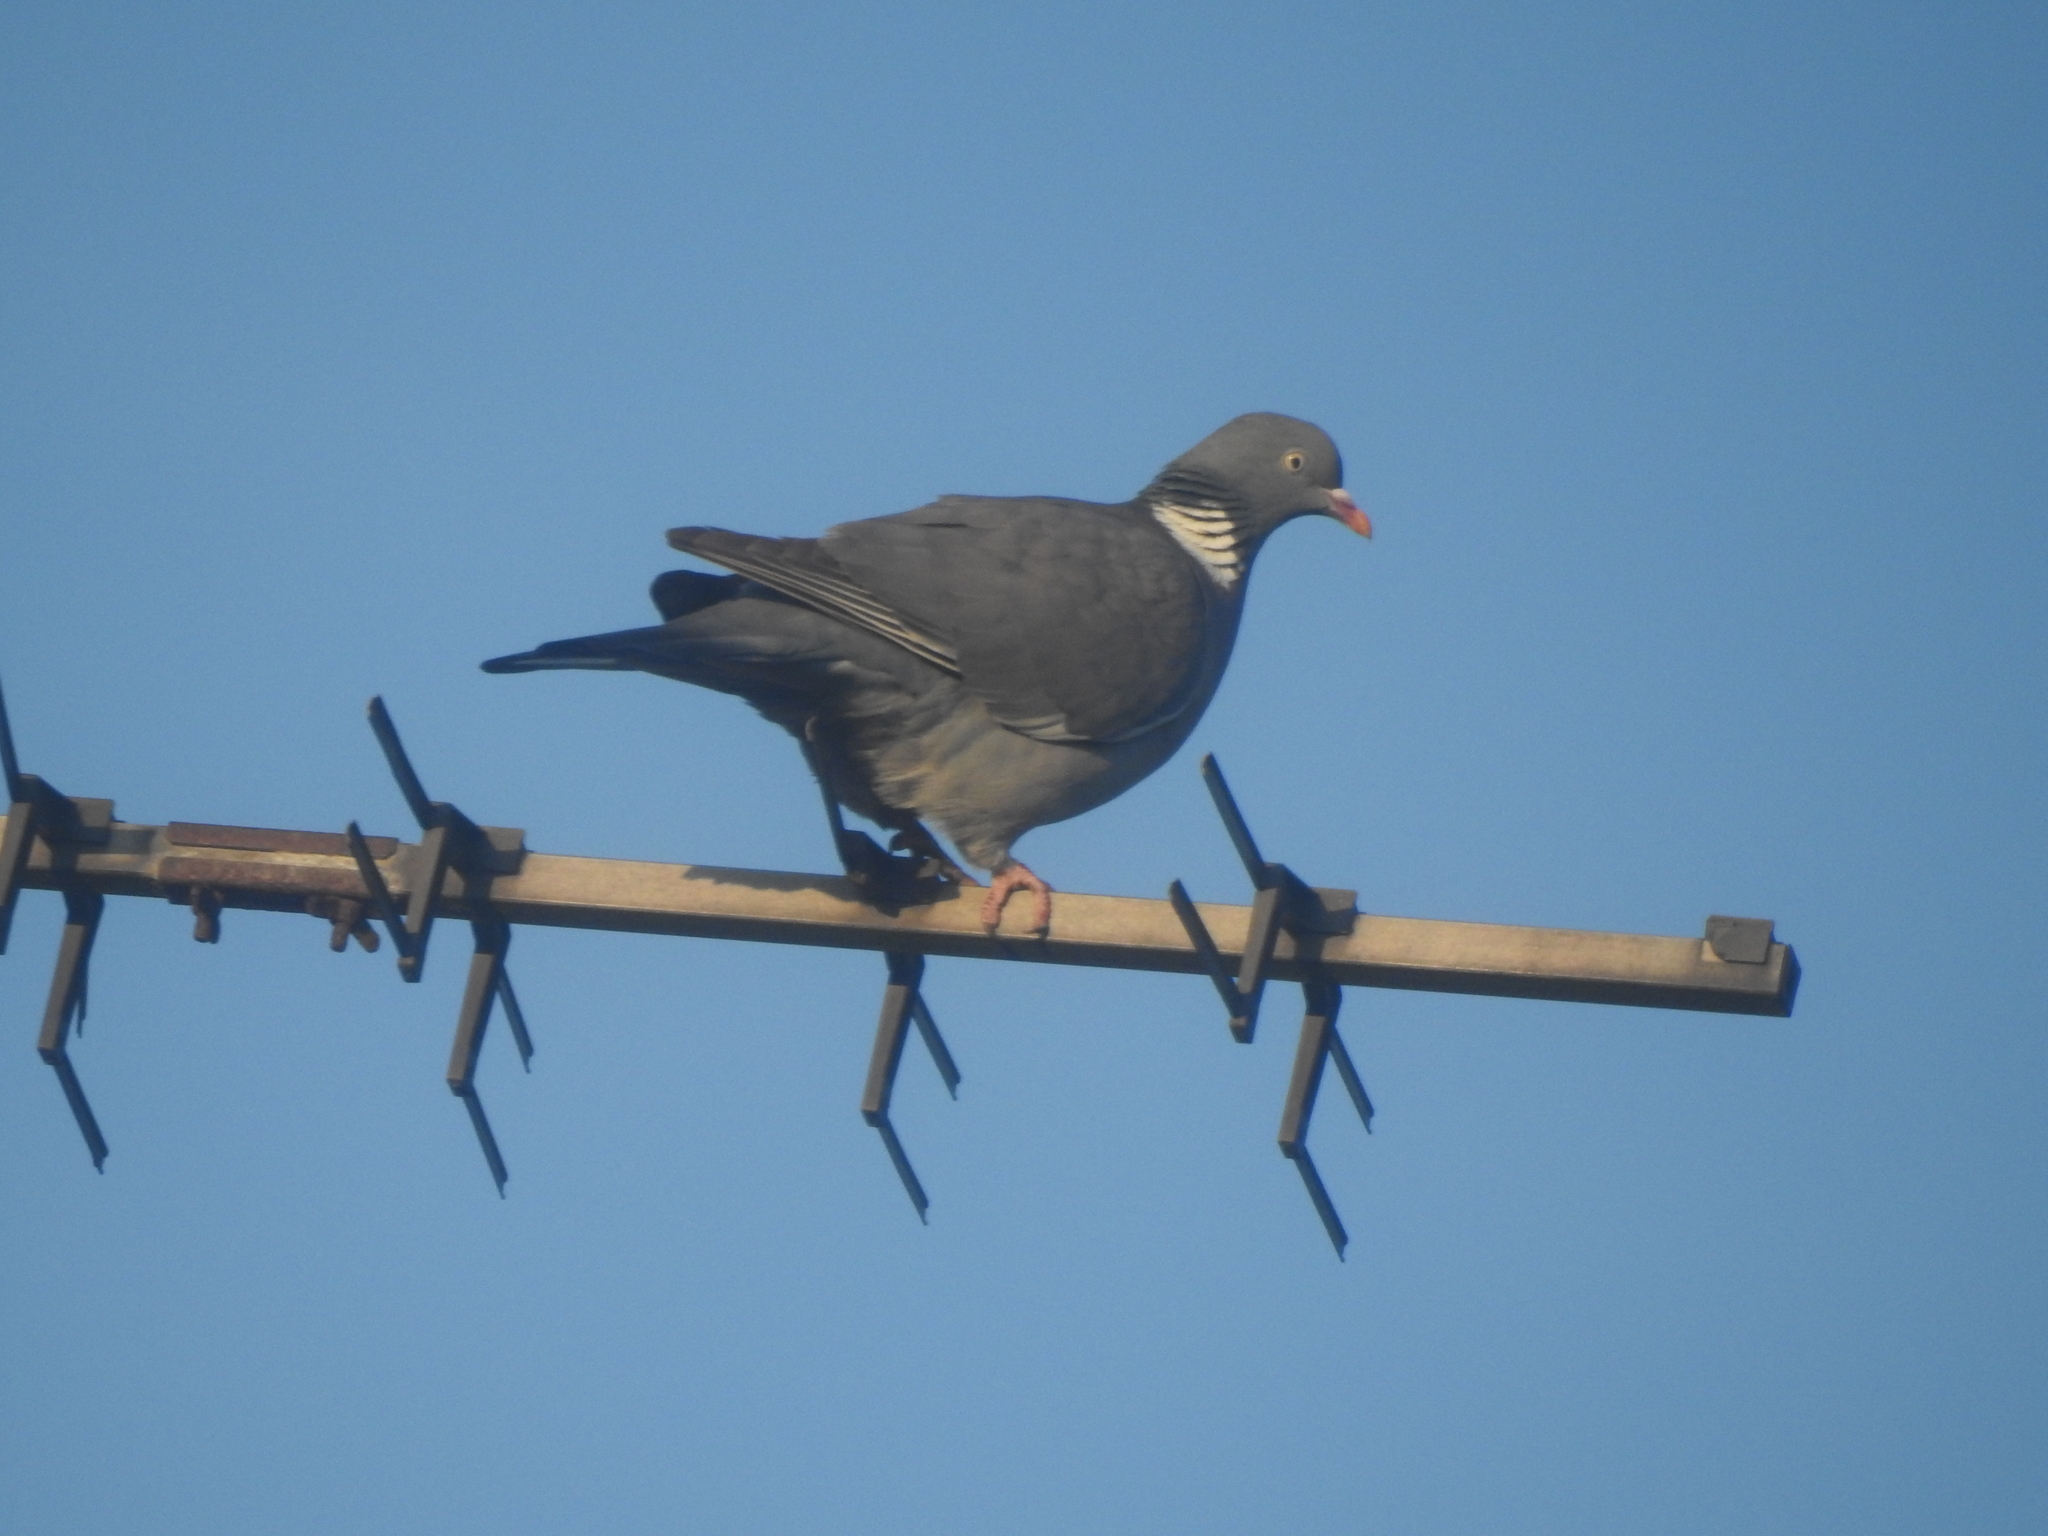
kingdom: Animalia
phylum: Chordata
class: Aves
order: Columbiformes
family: Columbidae
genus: Columba
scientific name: Columba palumbus
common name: Common wood pigeon
